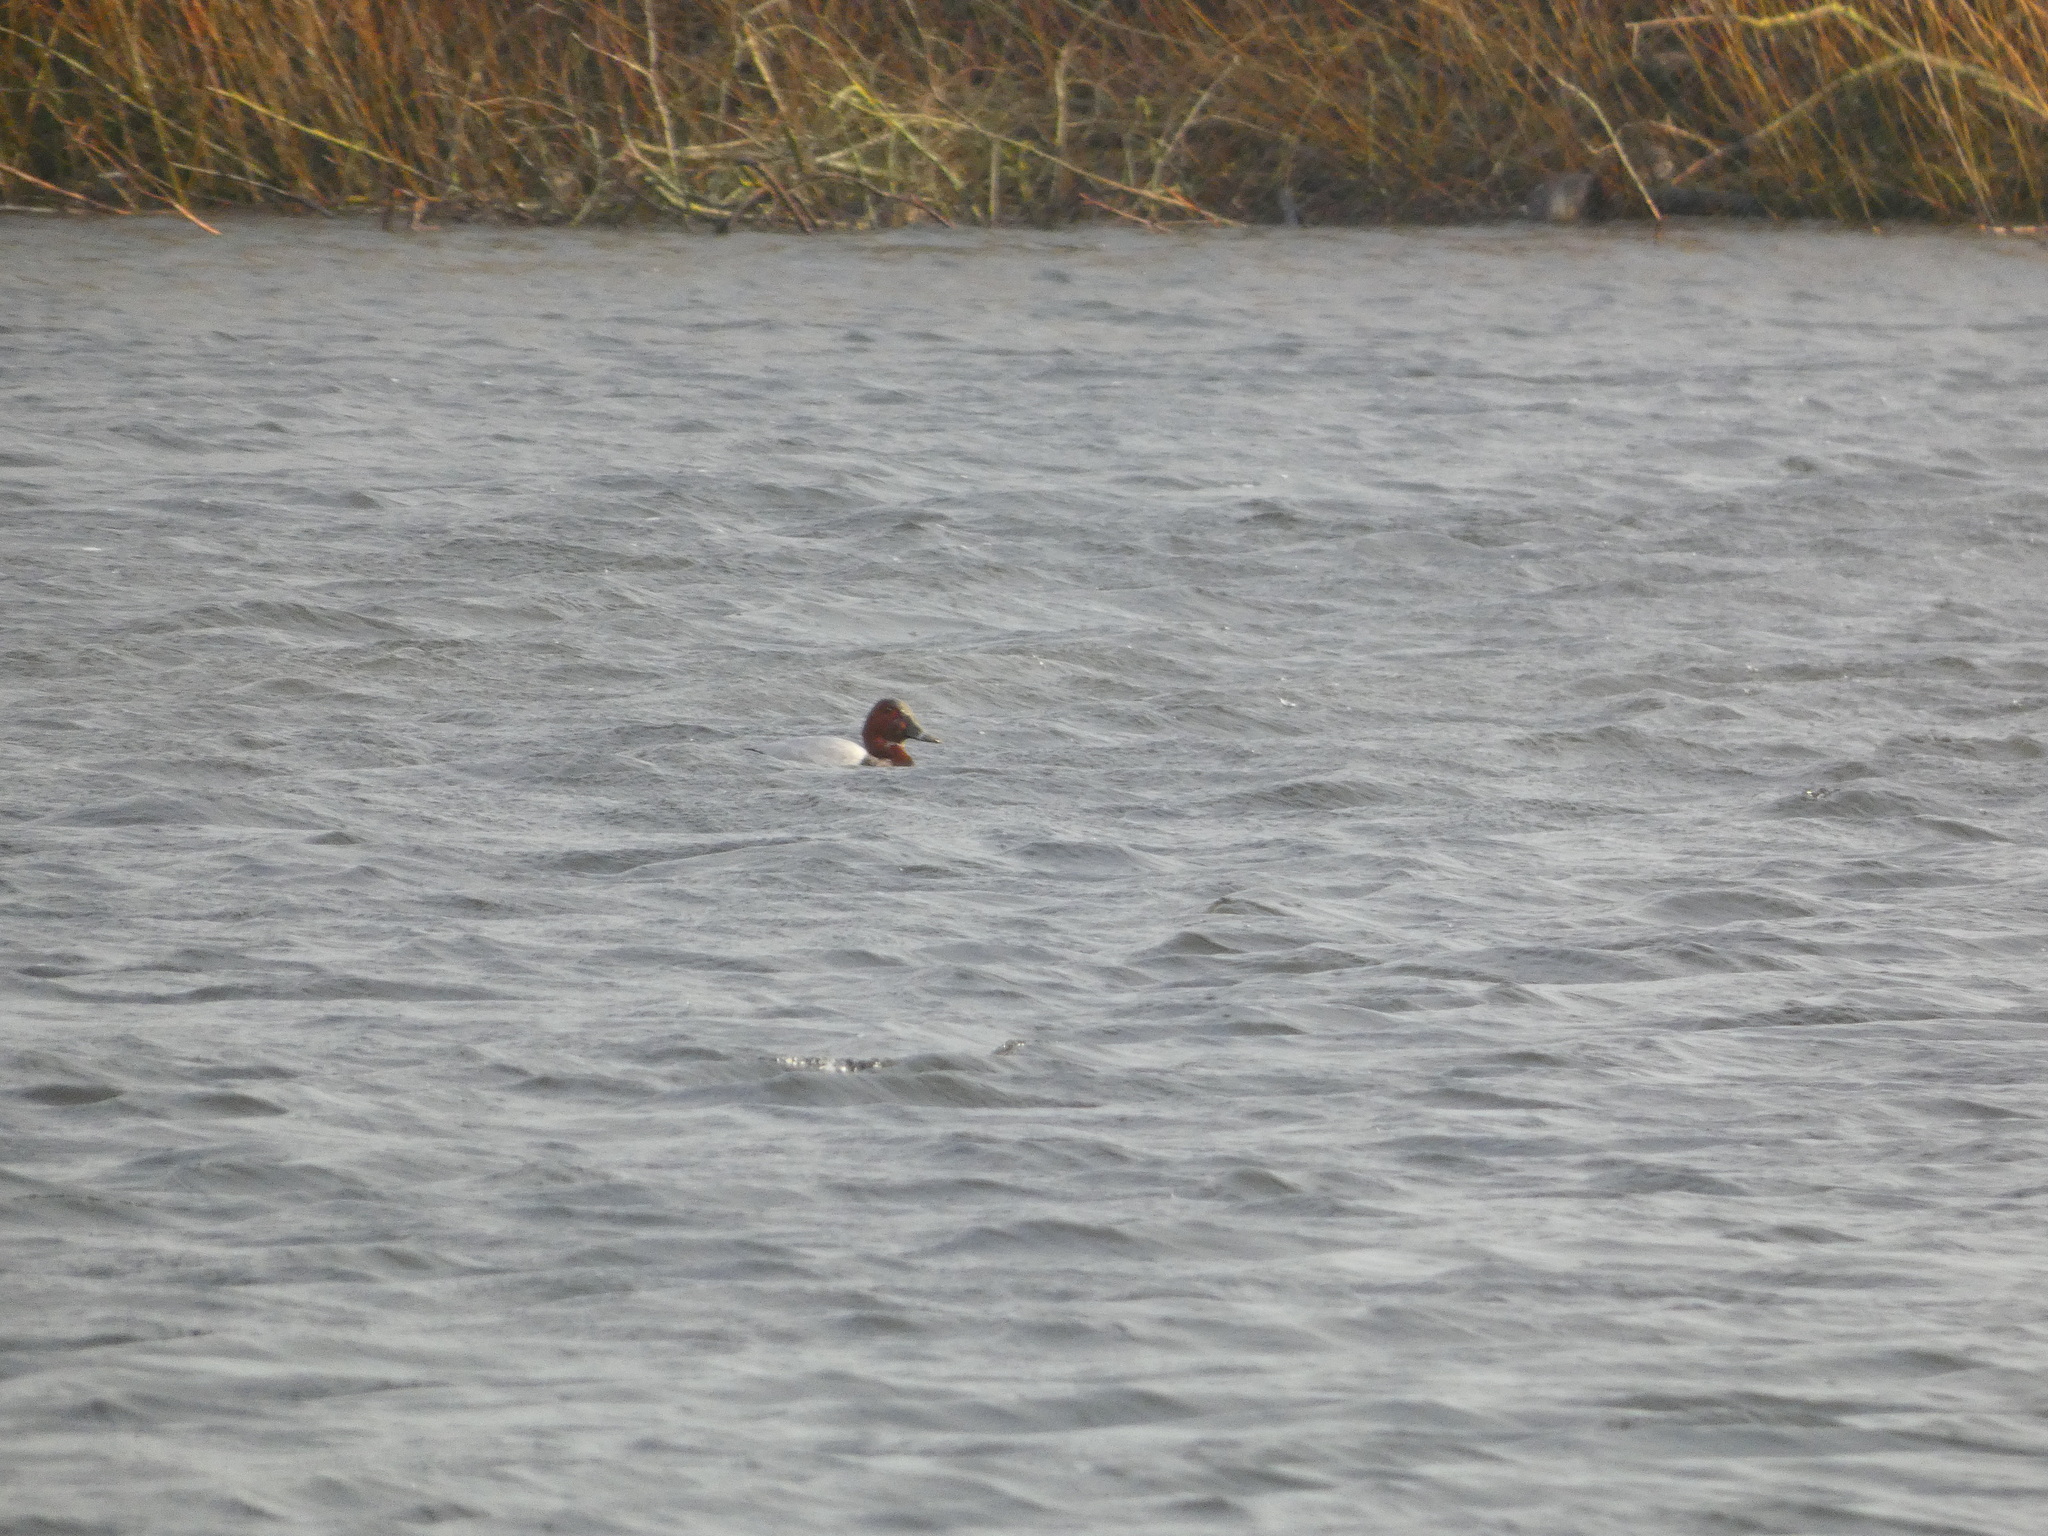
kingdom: Animalia
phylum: Chordata
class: Aves
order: Anseriformes
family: Anatidae
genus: Aythya
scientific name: Aythya ferina
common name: Common pochard
